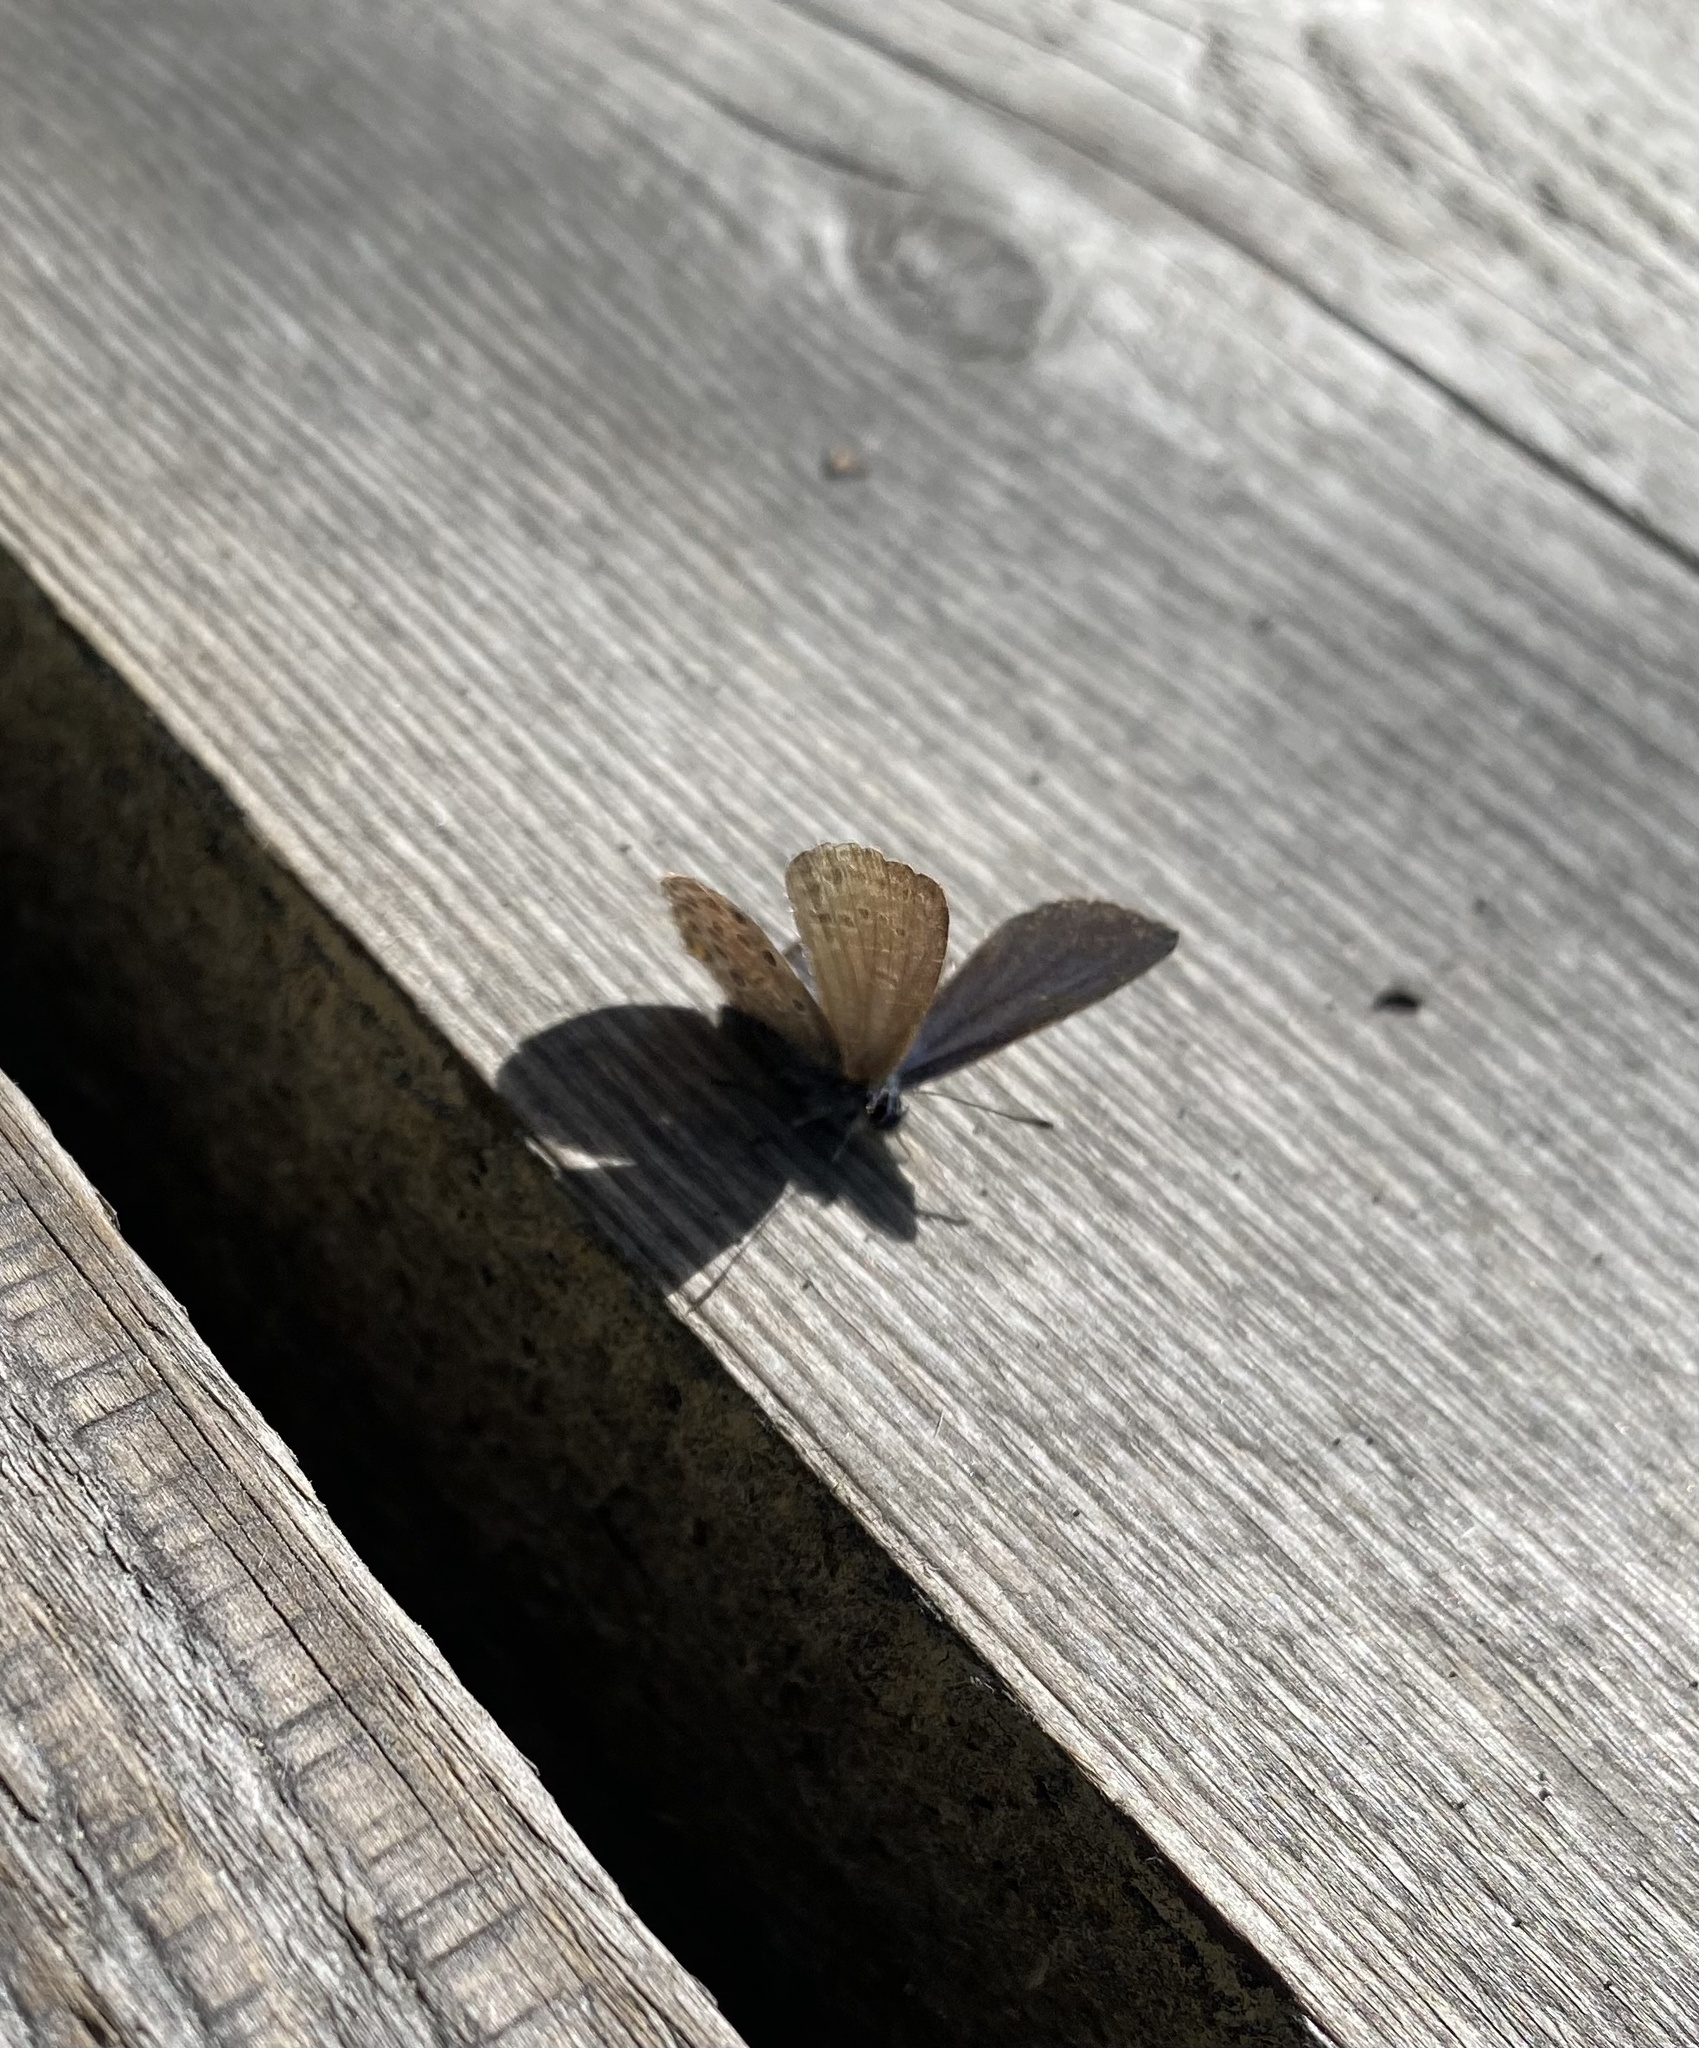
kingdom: Animalia
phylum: Arthropoda
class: Insecta
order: Lepidoptera
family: Lycaenidae
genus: Vacciniina
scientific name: Vacciniina optilete
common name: Cranberry blue
